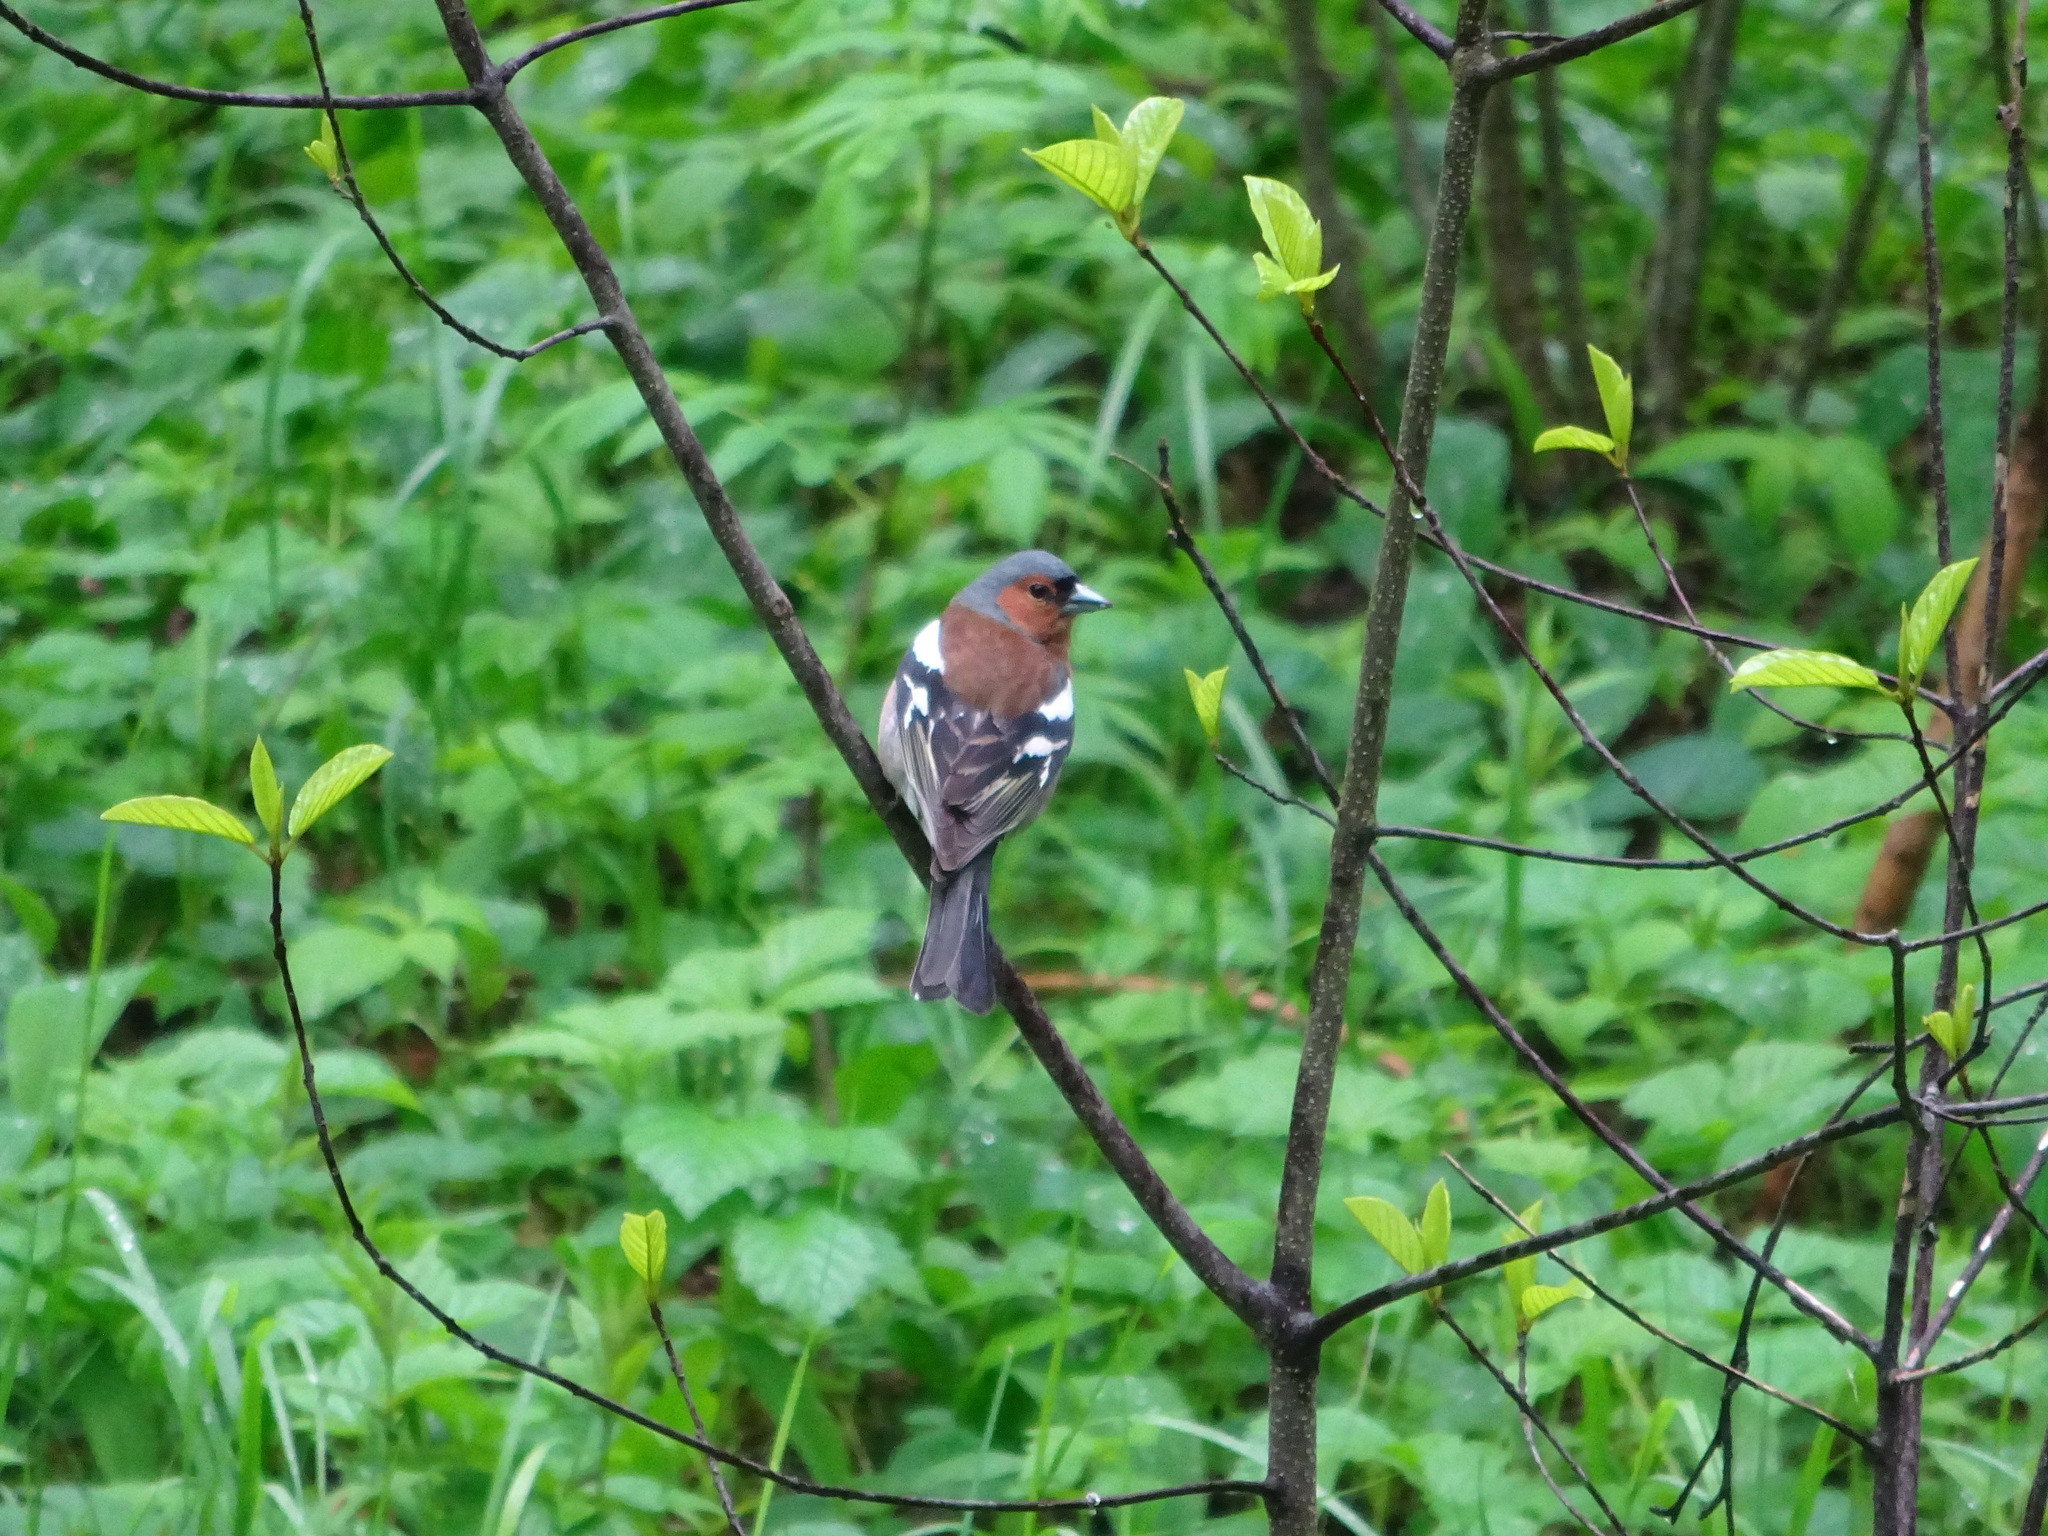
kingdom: Animalia
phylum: Chordata
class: Aves
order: Passeriformes
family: Fringillidae
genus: Fringilla
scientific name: Fringilla coelebs
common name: Common chaffinch
